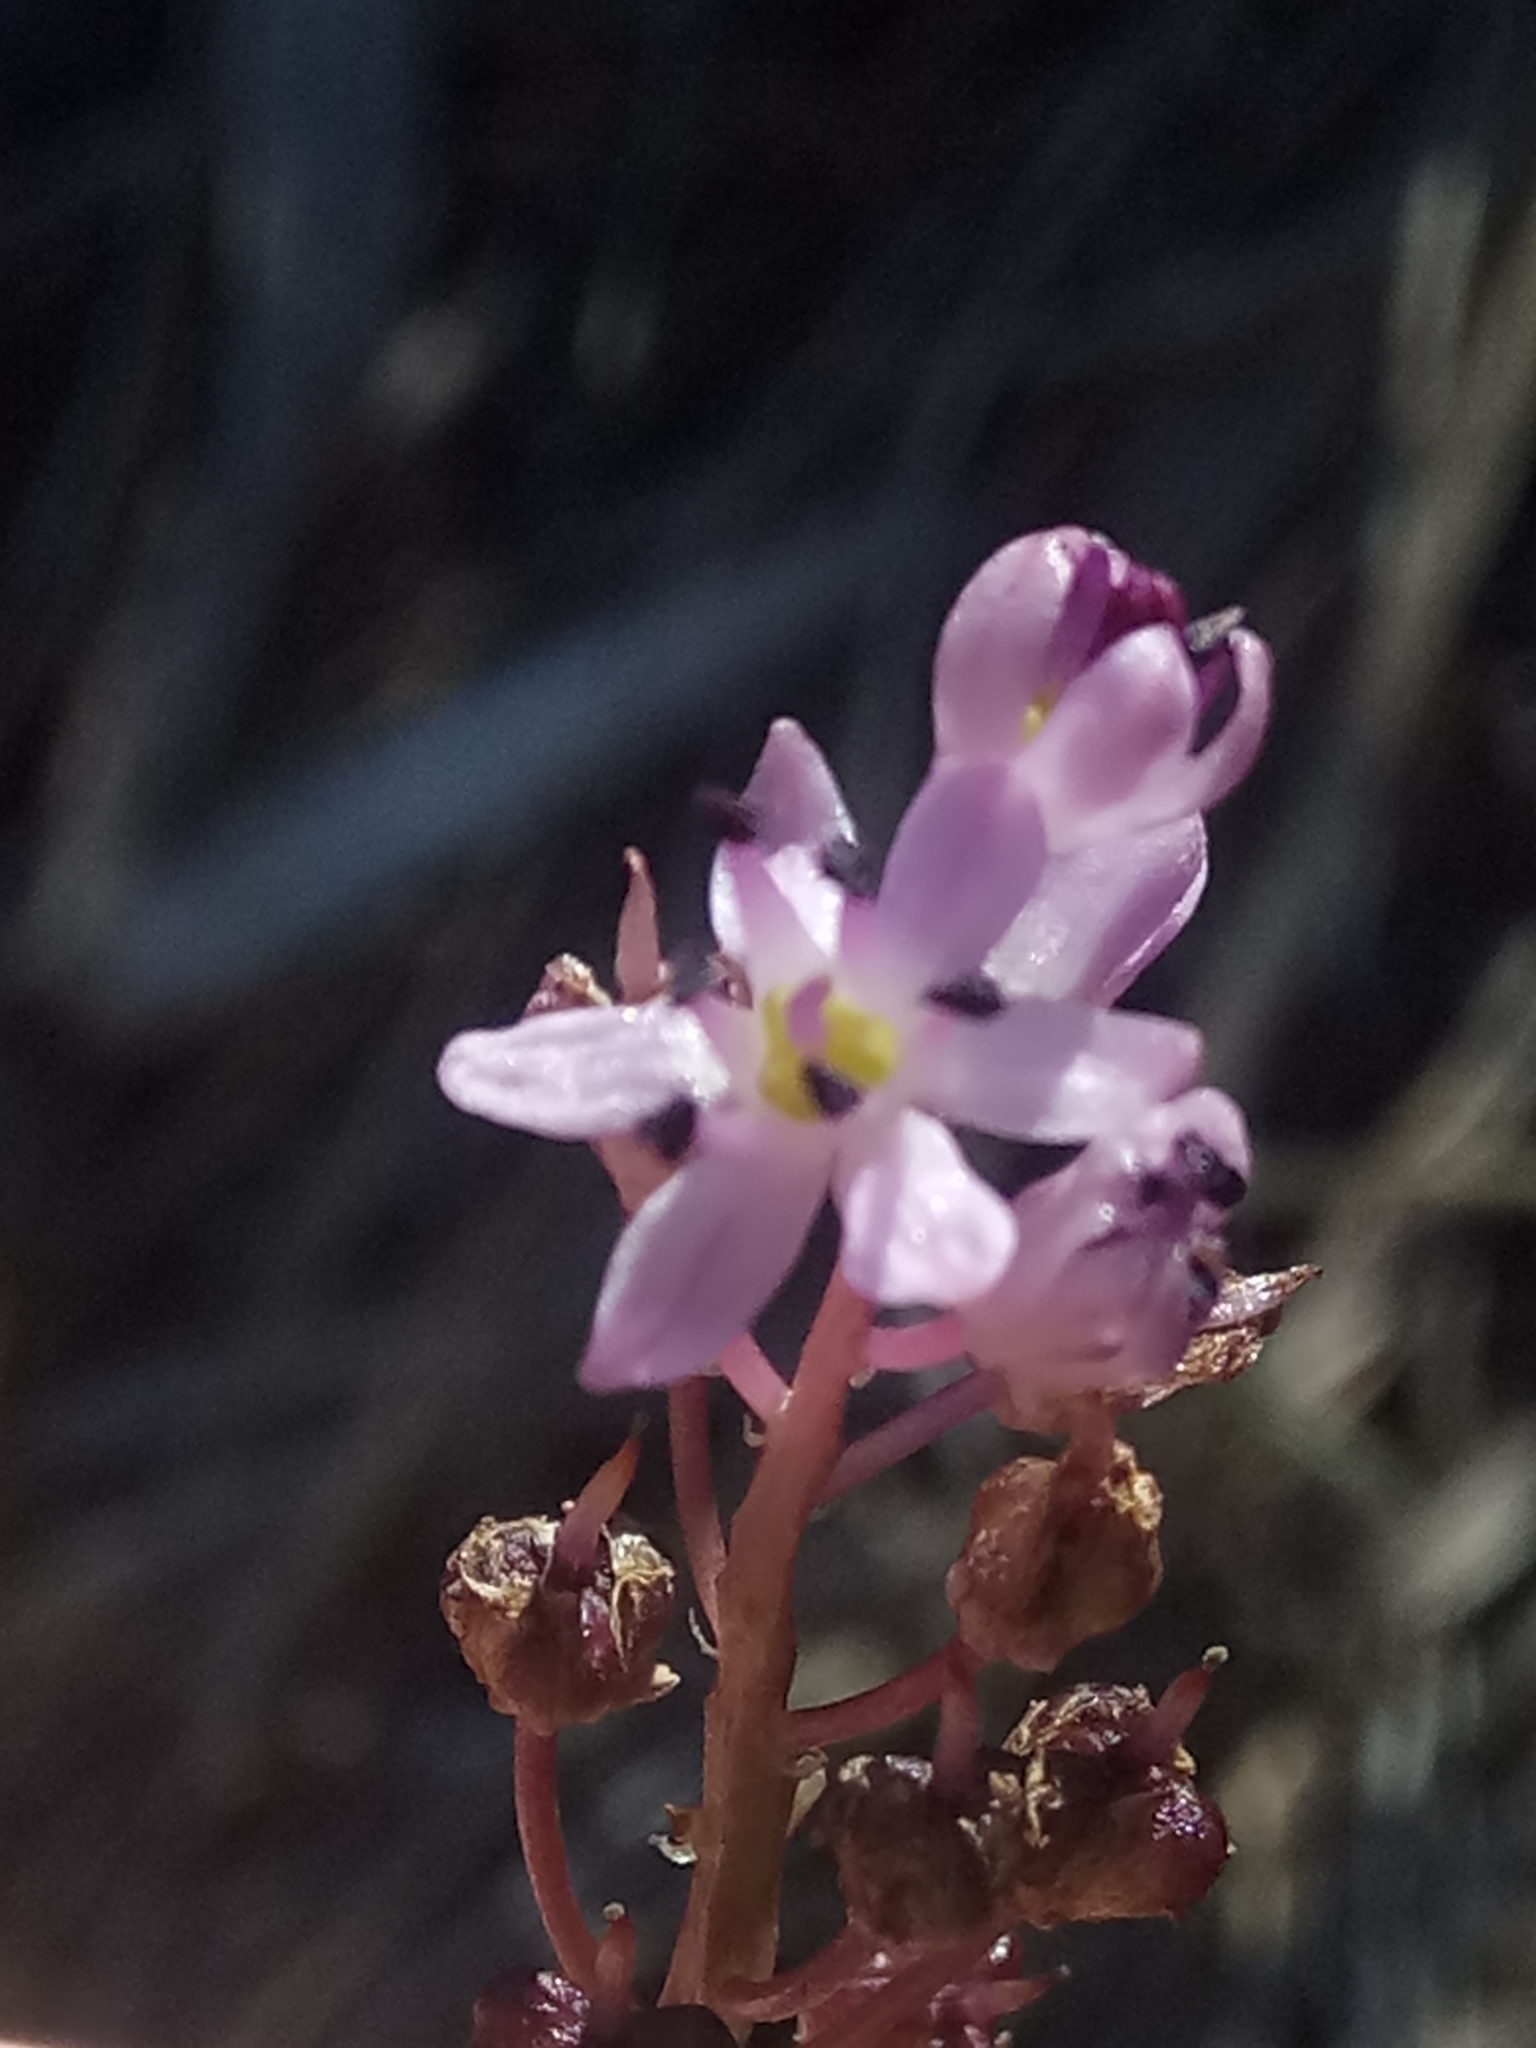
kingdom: Plantae
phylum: Tracheophyta
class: Liliopsida
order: Asparagales
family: Asparagaceae
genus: Barnardia
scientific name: Barnardia numidica
